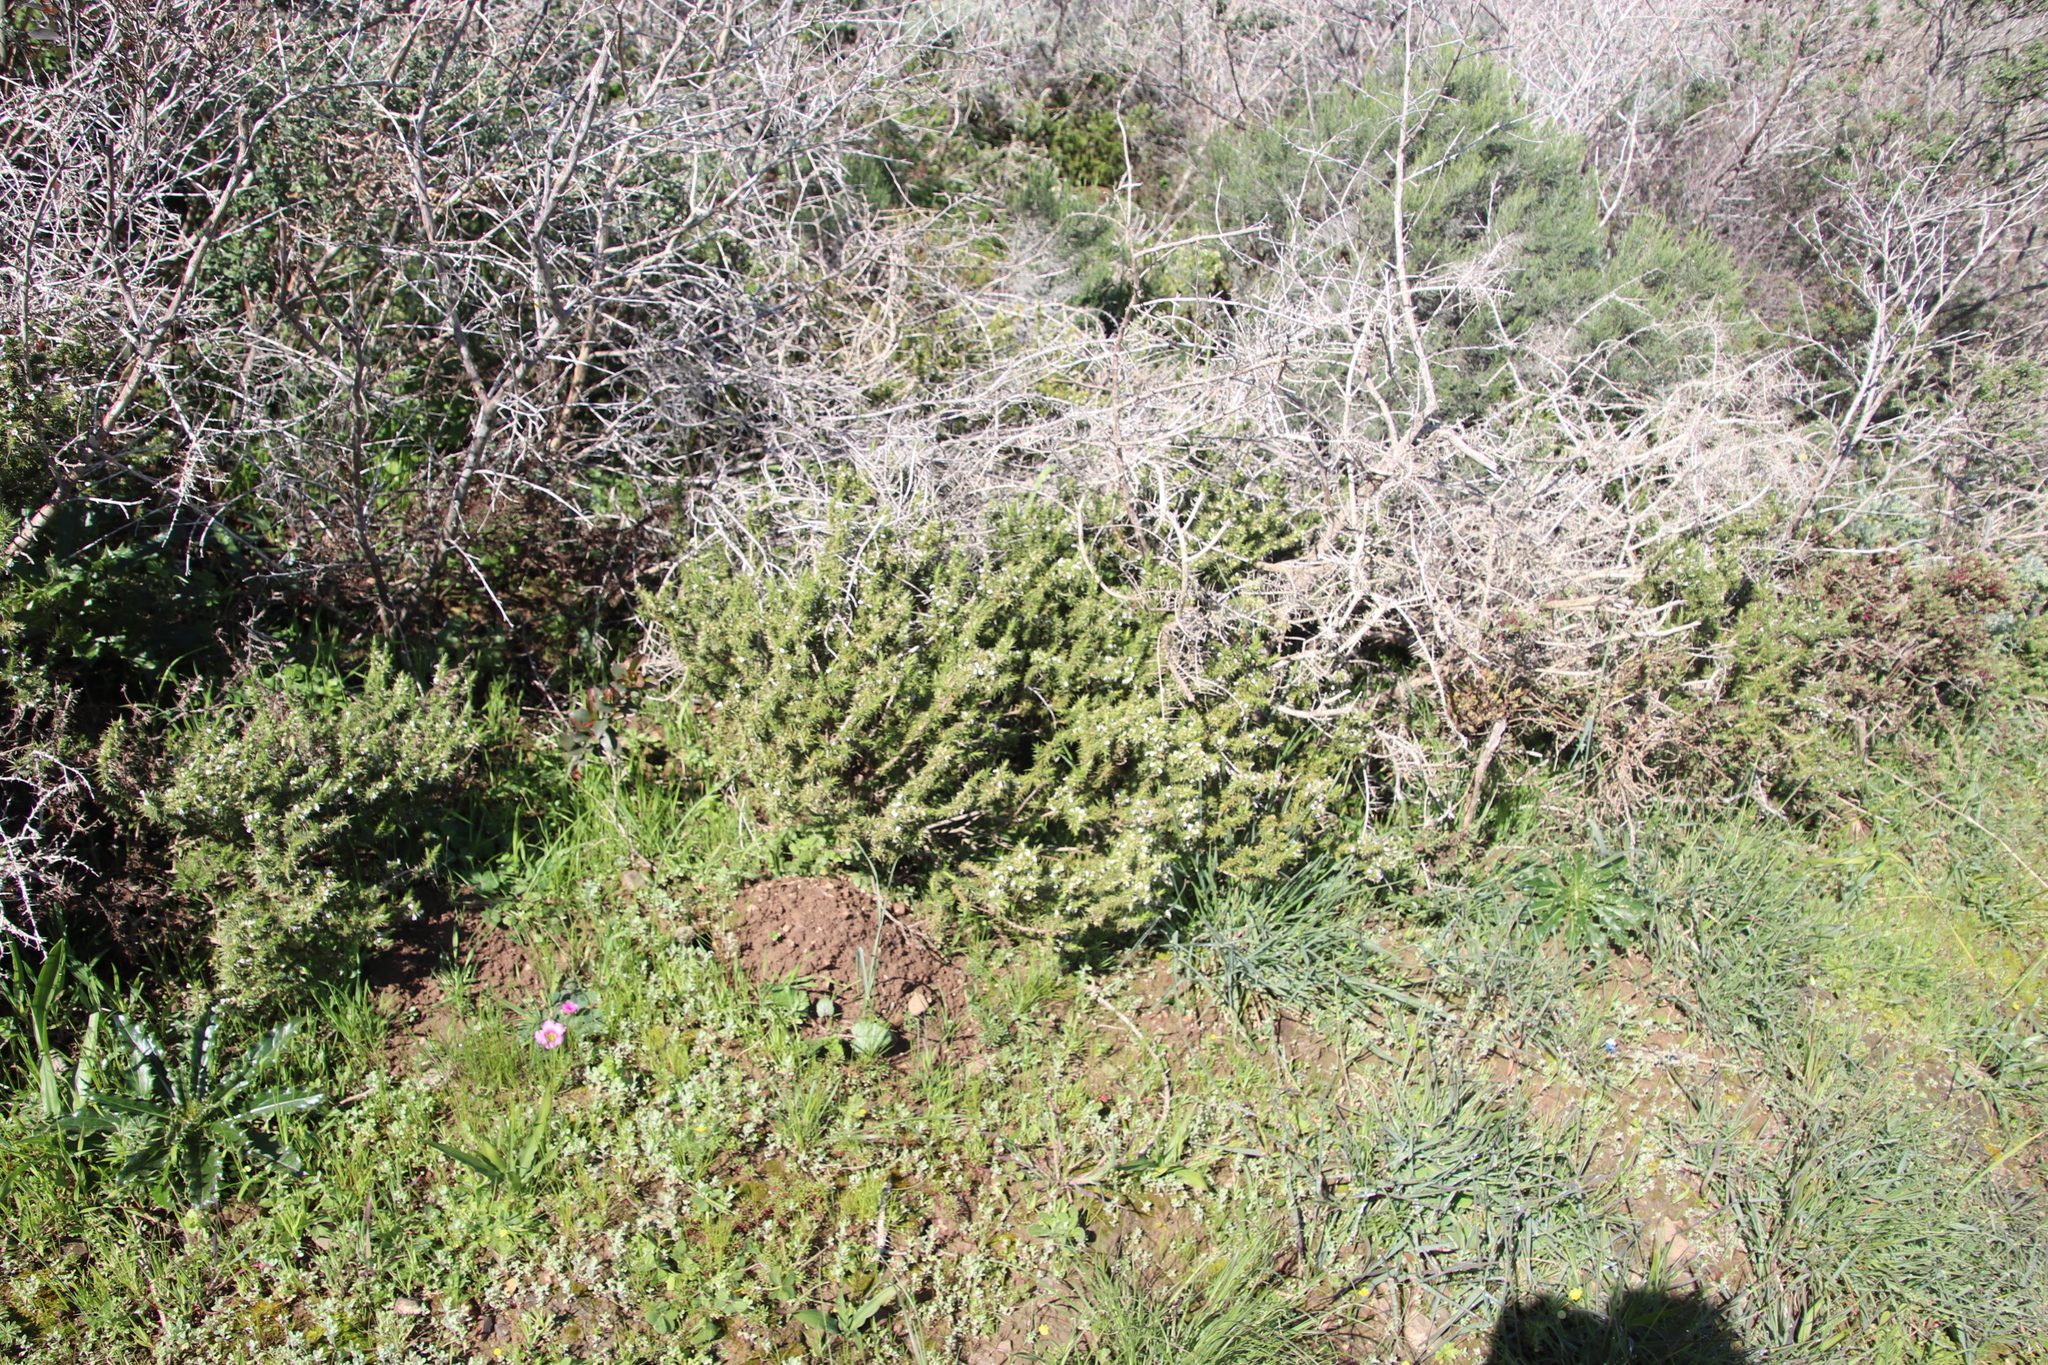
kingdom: Plantae
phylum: Tracheophyta
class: Magnoliopsida
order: Fabales
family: Polygalaceae
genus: Muraltia
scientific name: Muraltia ononidifolia
